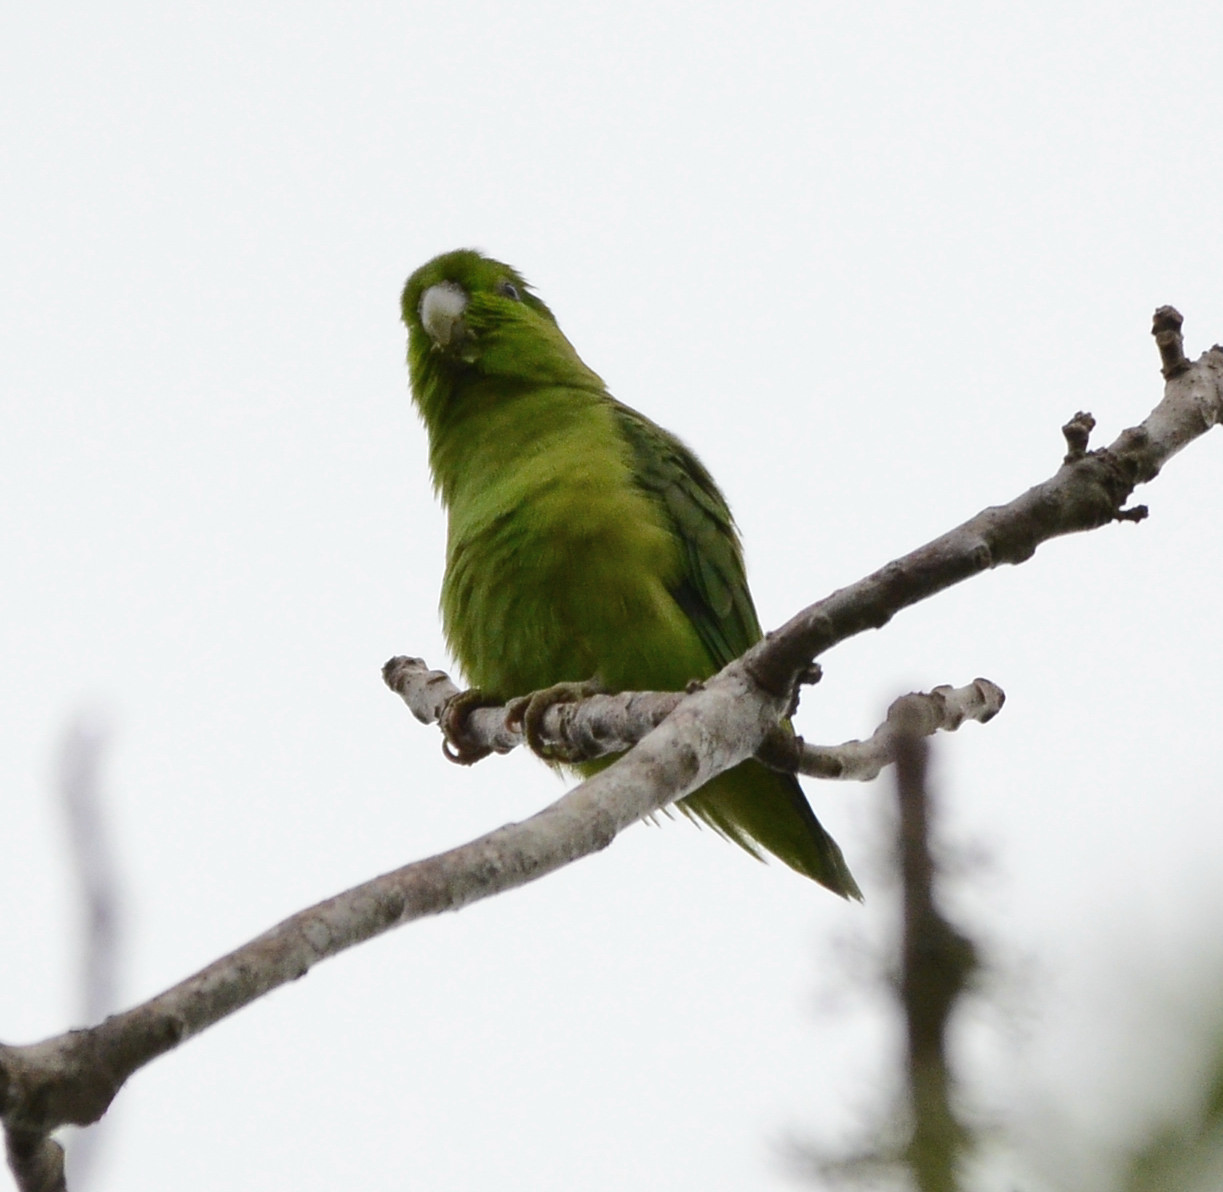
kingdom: Animalia
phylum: Chordata
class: Aves
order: Psittaciformes
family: Psittacidae
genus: Forpus
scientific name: Forpus cyanopygius
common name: Mexican parrotlet
